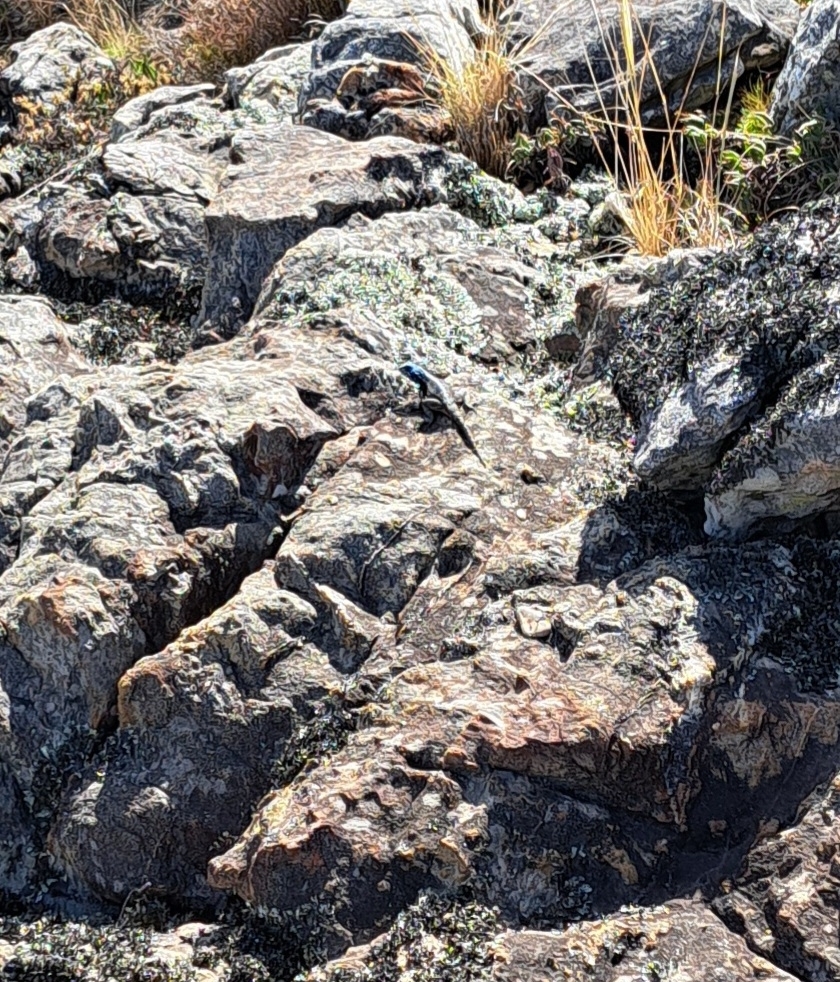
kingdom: Animalia
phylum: Chordata
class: Squamata
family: Agamidae
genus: Agama
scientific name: Agama atra
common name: Southern african rock agama
